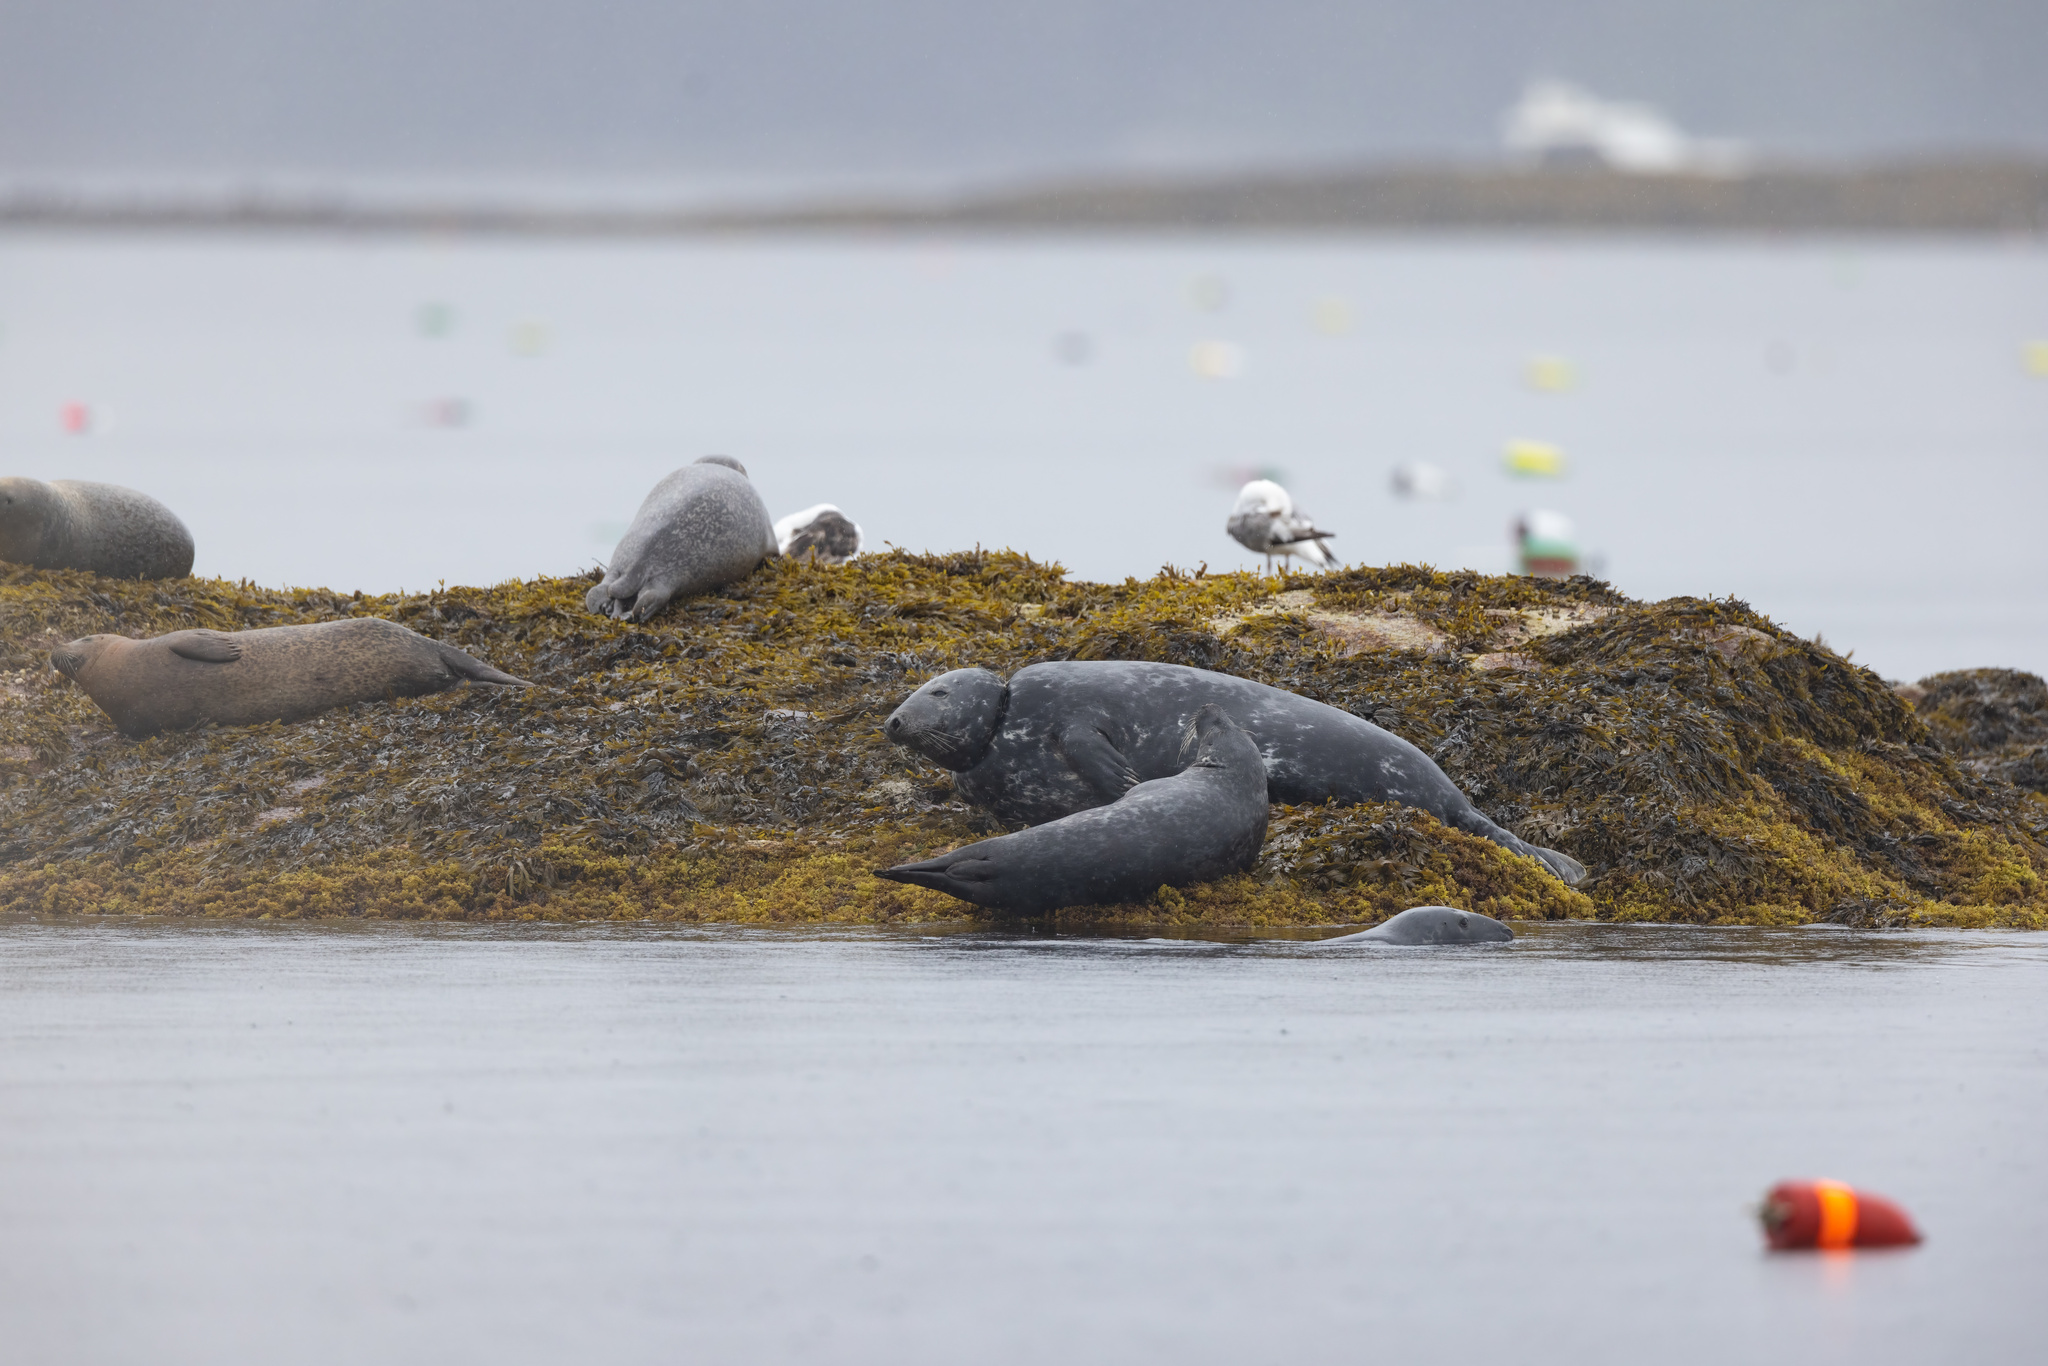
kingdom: Animalia
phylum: Chordata
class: Mammalia
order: Carnivora
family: Phocidae
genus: Halichoerus
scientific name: Halichoerus grypus
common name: Grey seal
